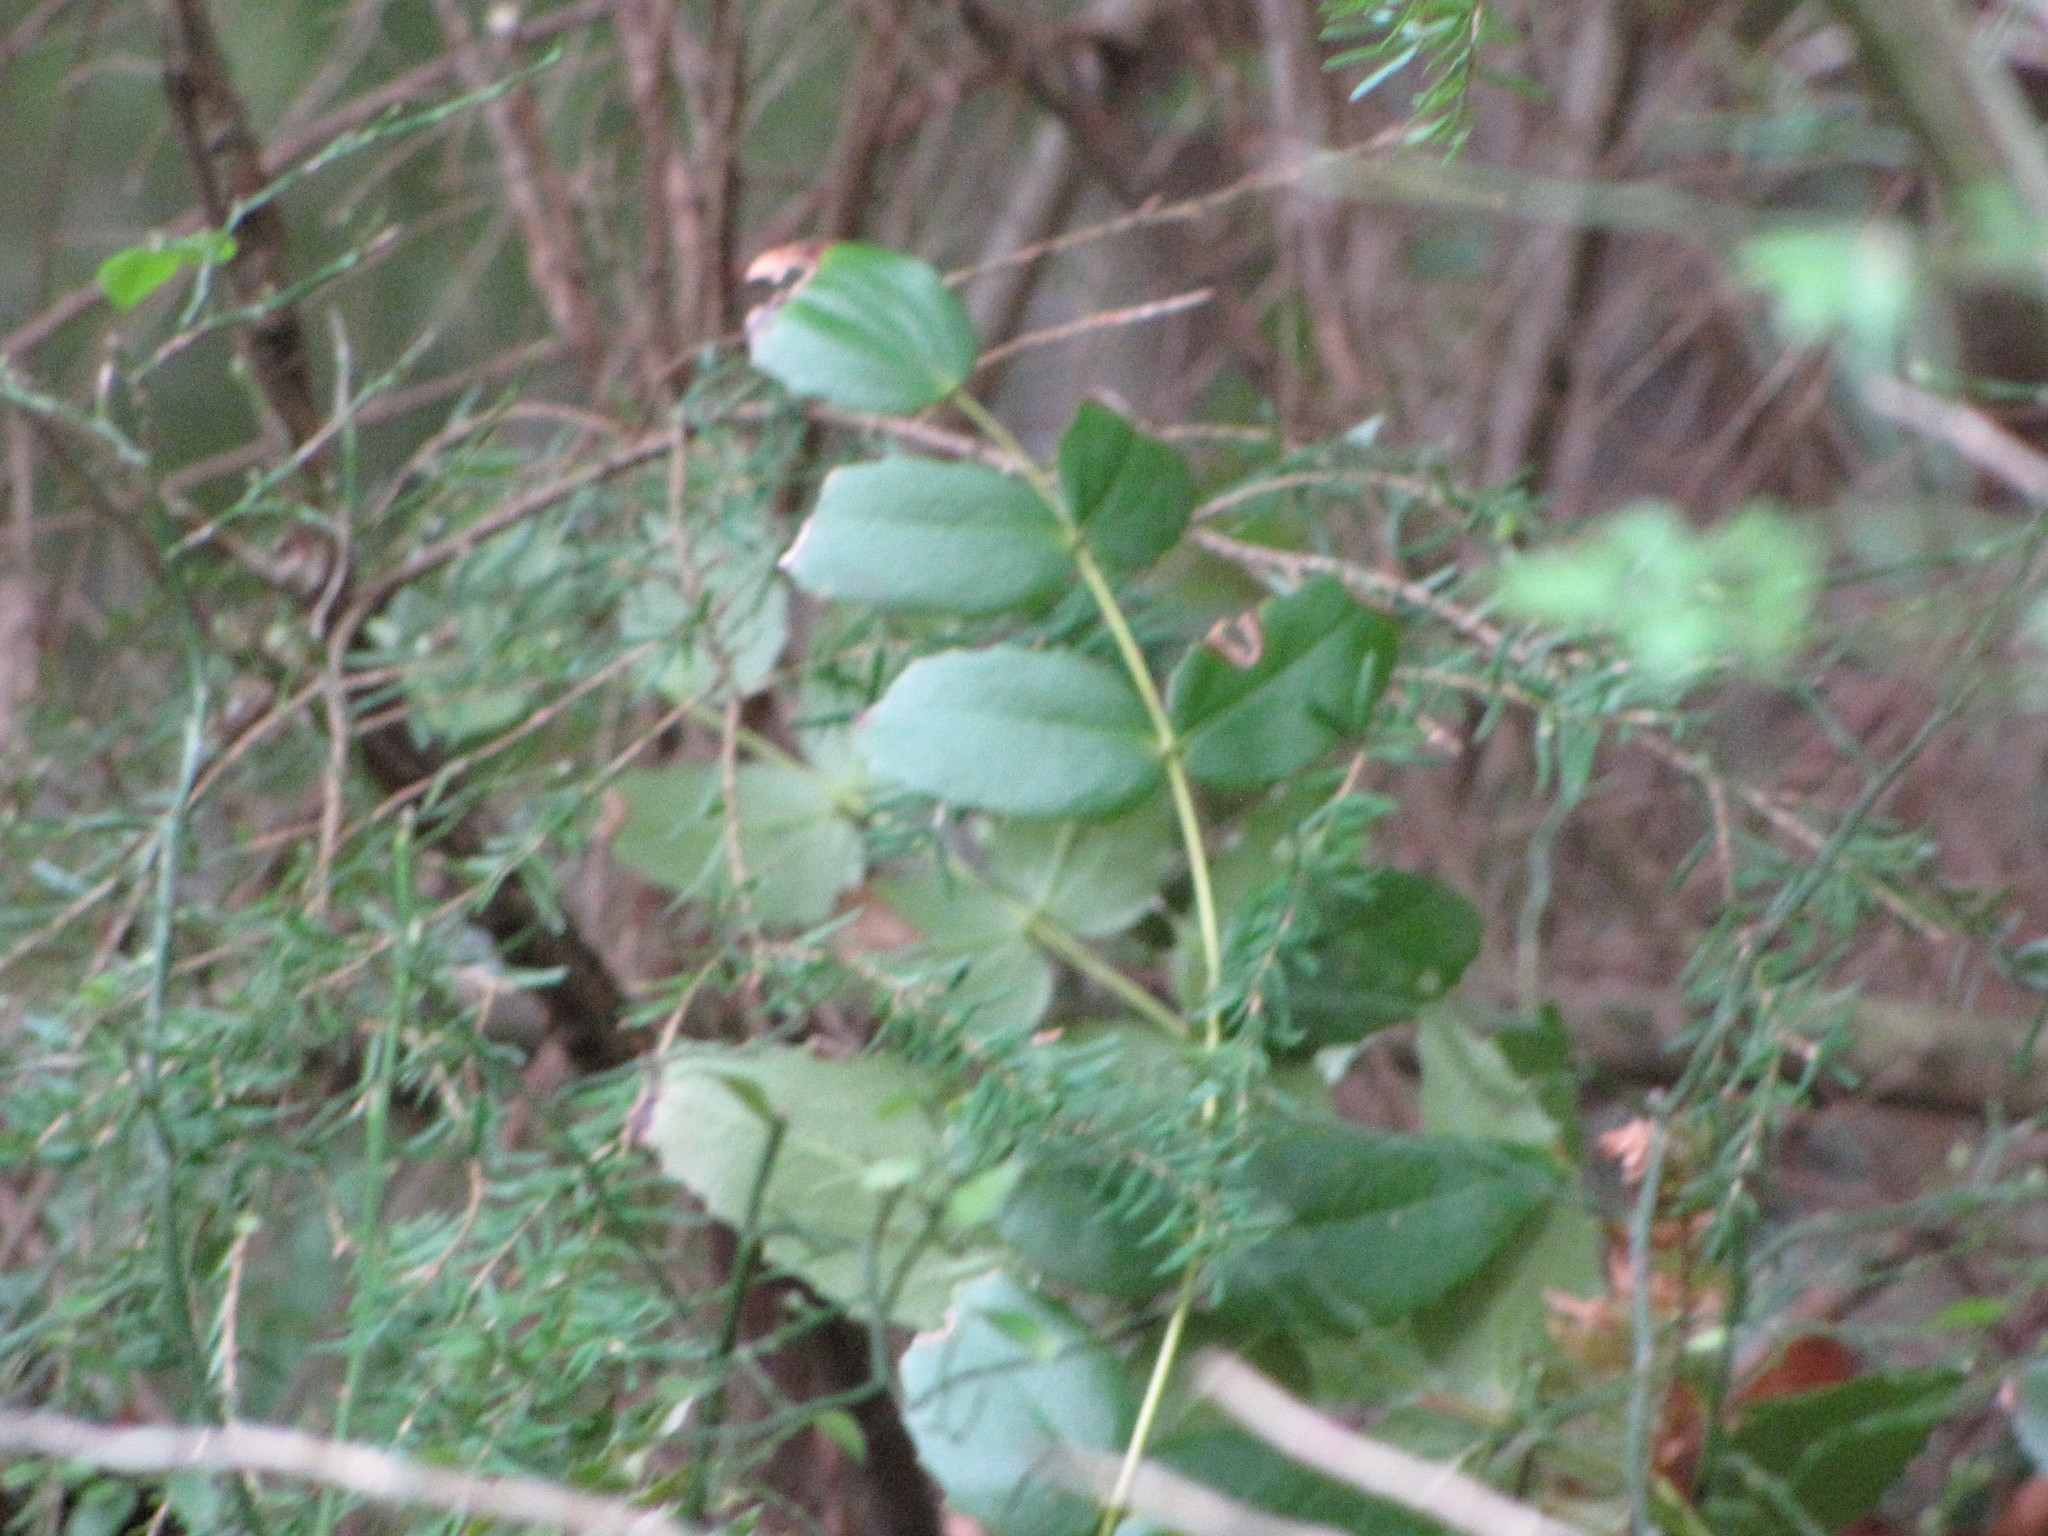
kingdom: Plantae
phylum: Tracheophyta
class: Magnoliopsida
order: Ranunculales
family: Berberidaceae
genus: Mahonia
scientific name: Mahonia nervosa
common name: Cascade oregon-grape
